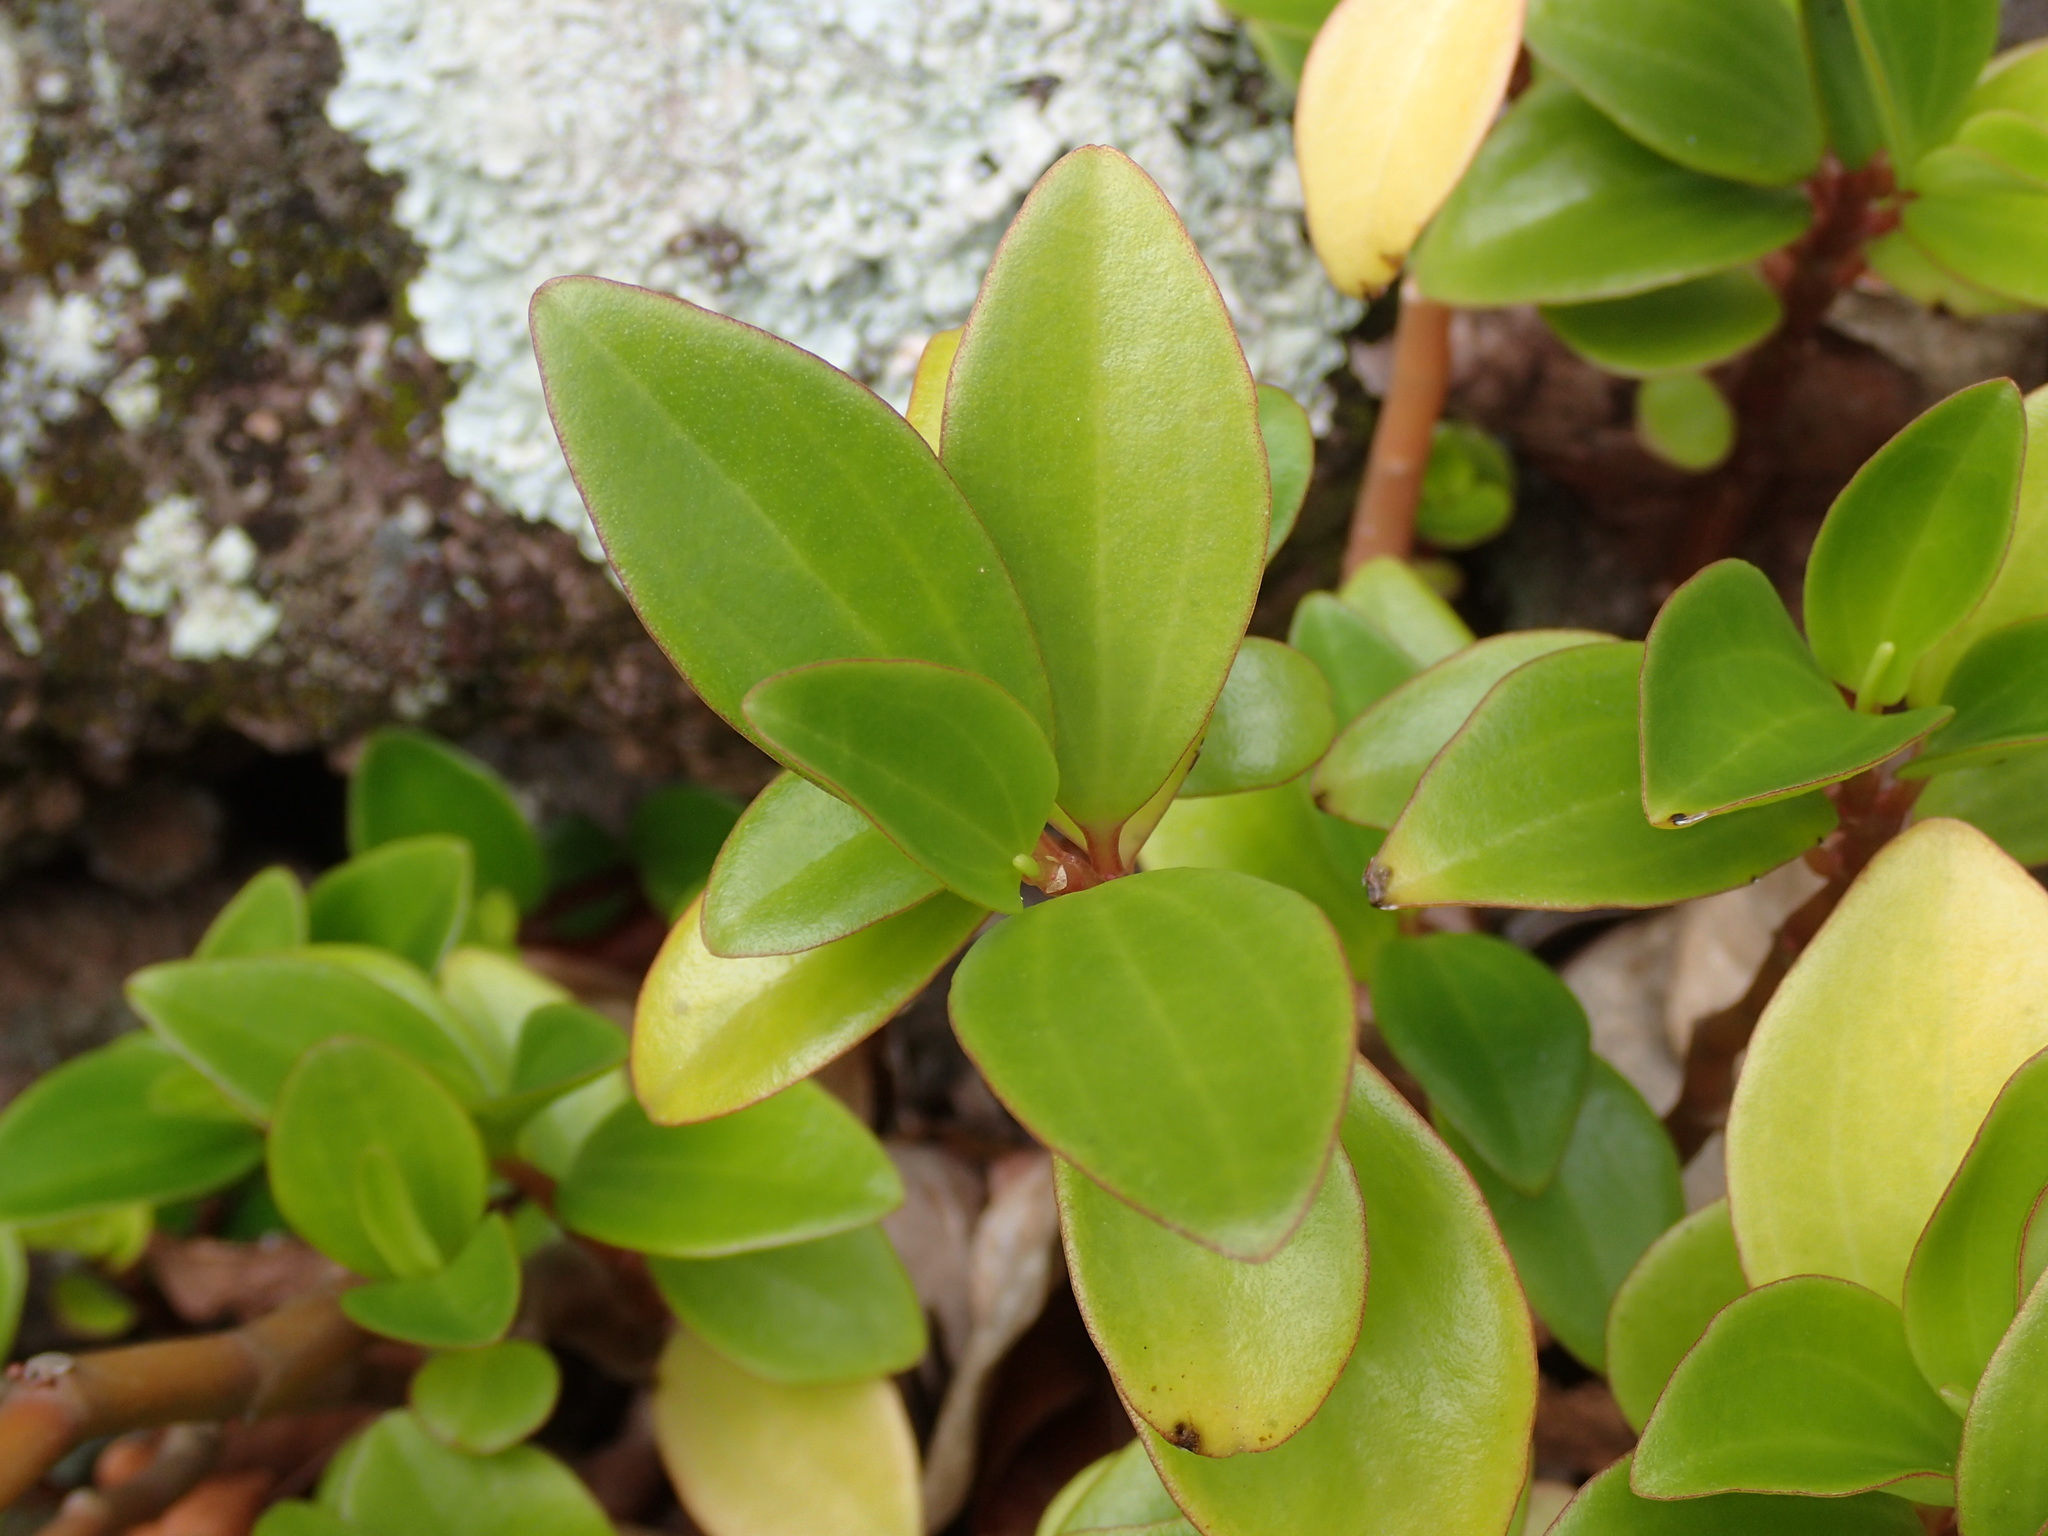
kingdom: Plantae
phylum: Tracheophyta
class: Magnoliopsida
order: Piperales
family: Piperaceae
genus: Peperomia
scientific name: Peperomia myrtifolia
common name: Myrtleleaf peperomia
